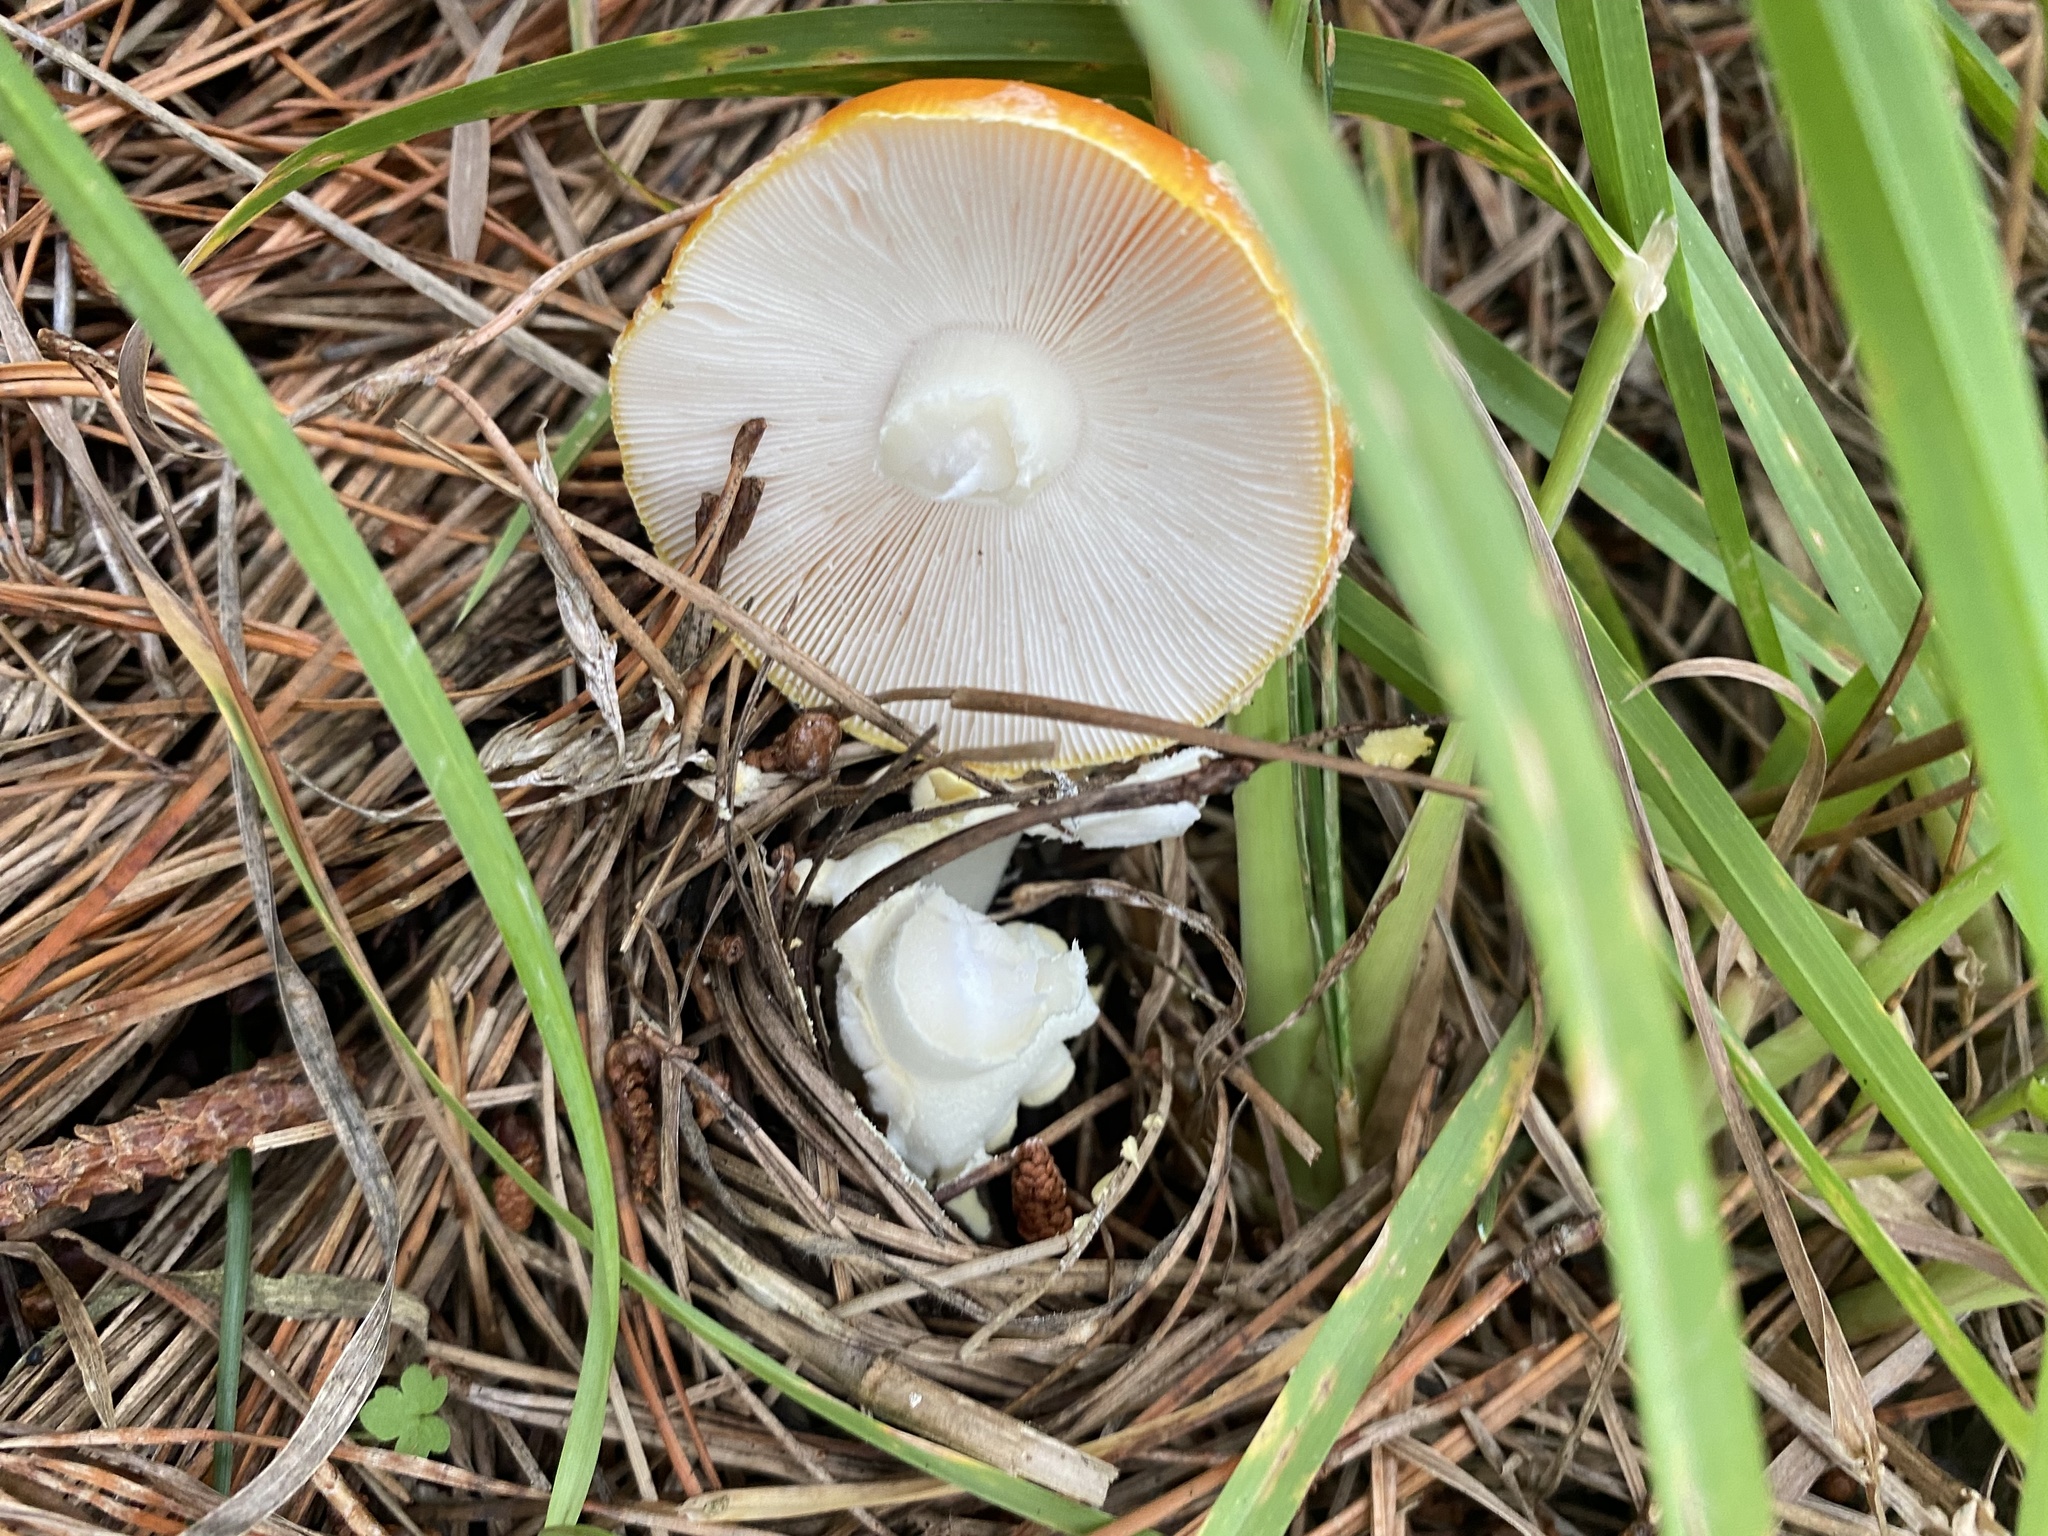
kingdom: Fungi
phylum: Basidiomycota
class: Agaricomycetes
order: Agaricales
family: Amanitaceae
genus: Amanita
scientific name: Amanita muscaria
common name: Fly agaric
